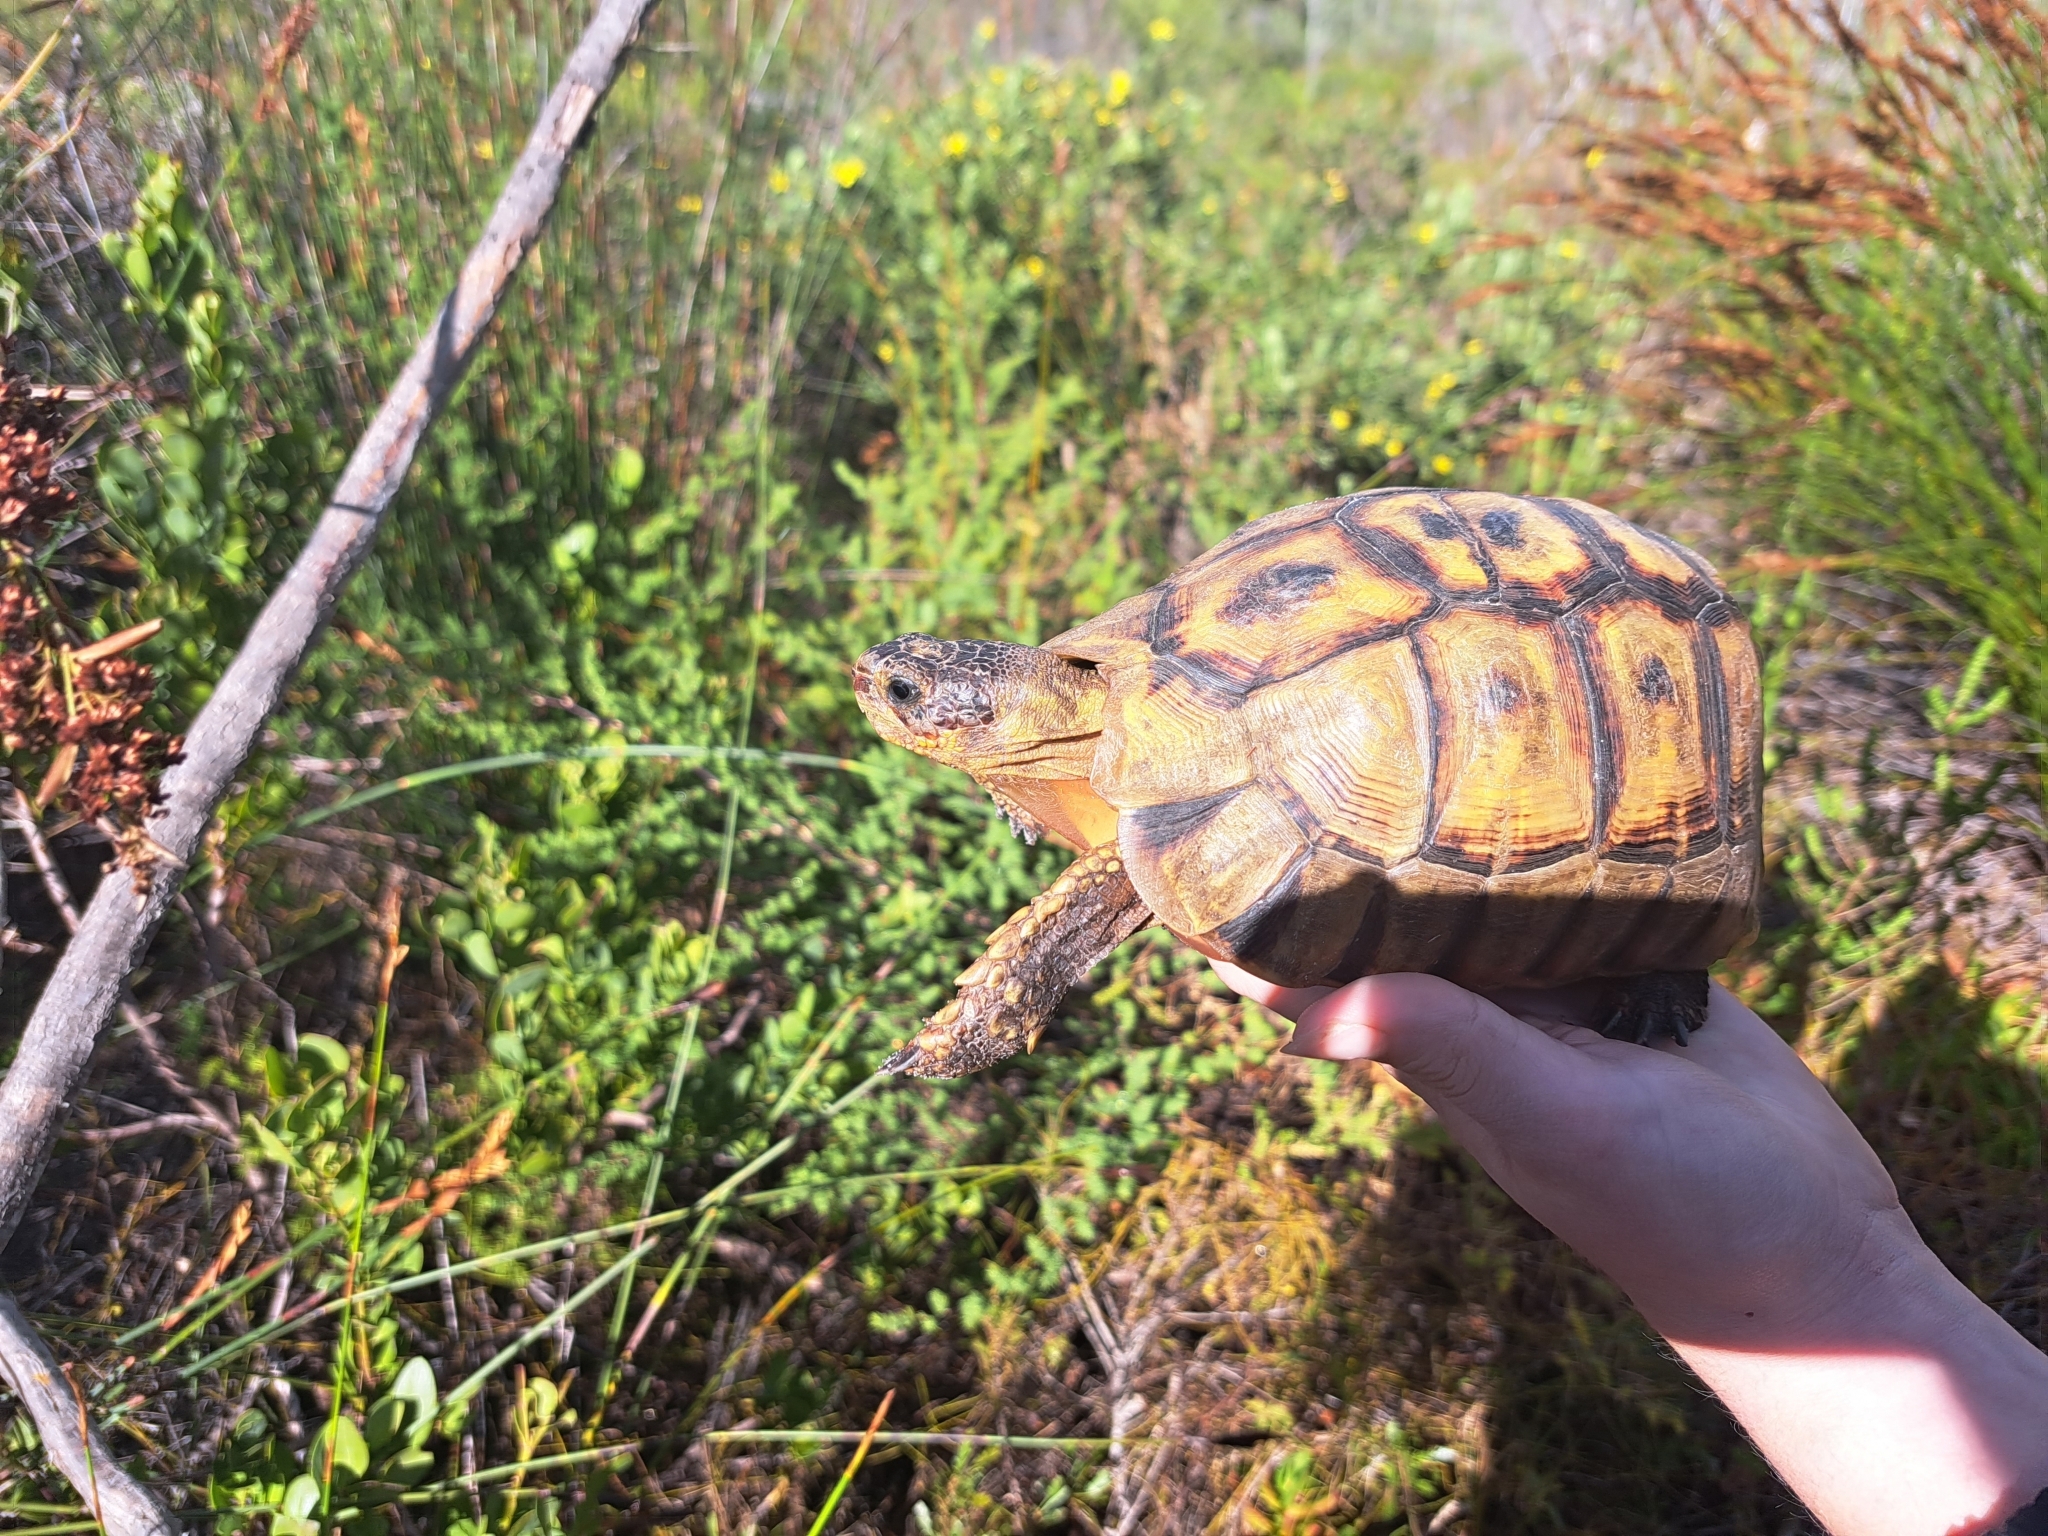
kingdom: Animalia
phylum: Chordata
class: Testudines
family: Testudinidae
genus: Chersina
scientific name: Chersina angulata
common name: South african bowsprit tortoise
